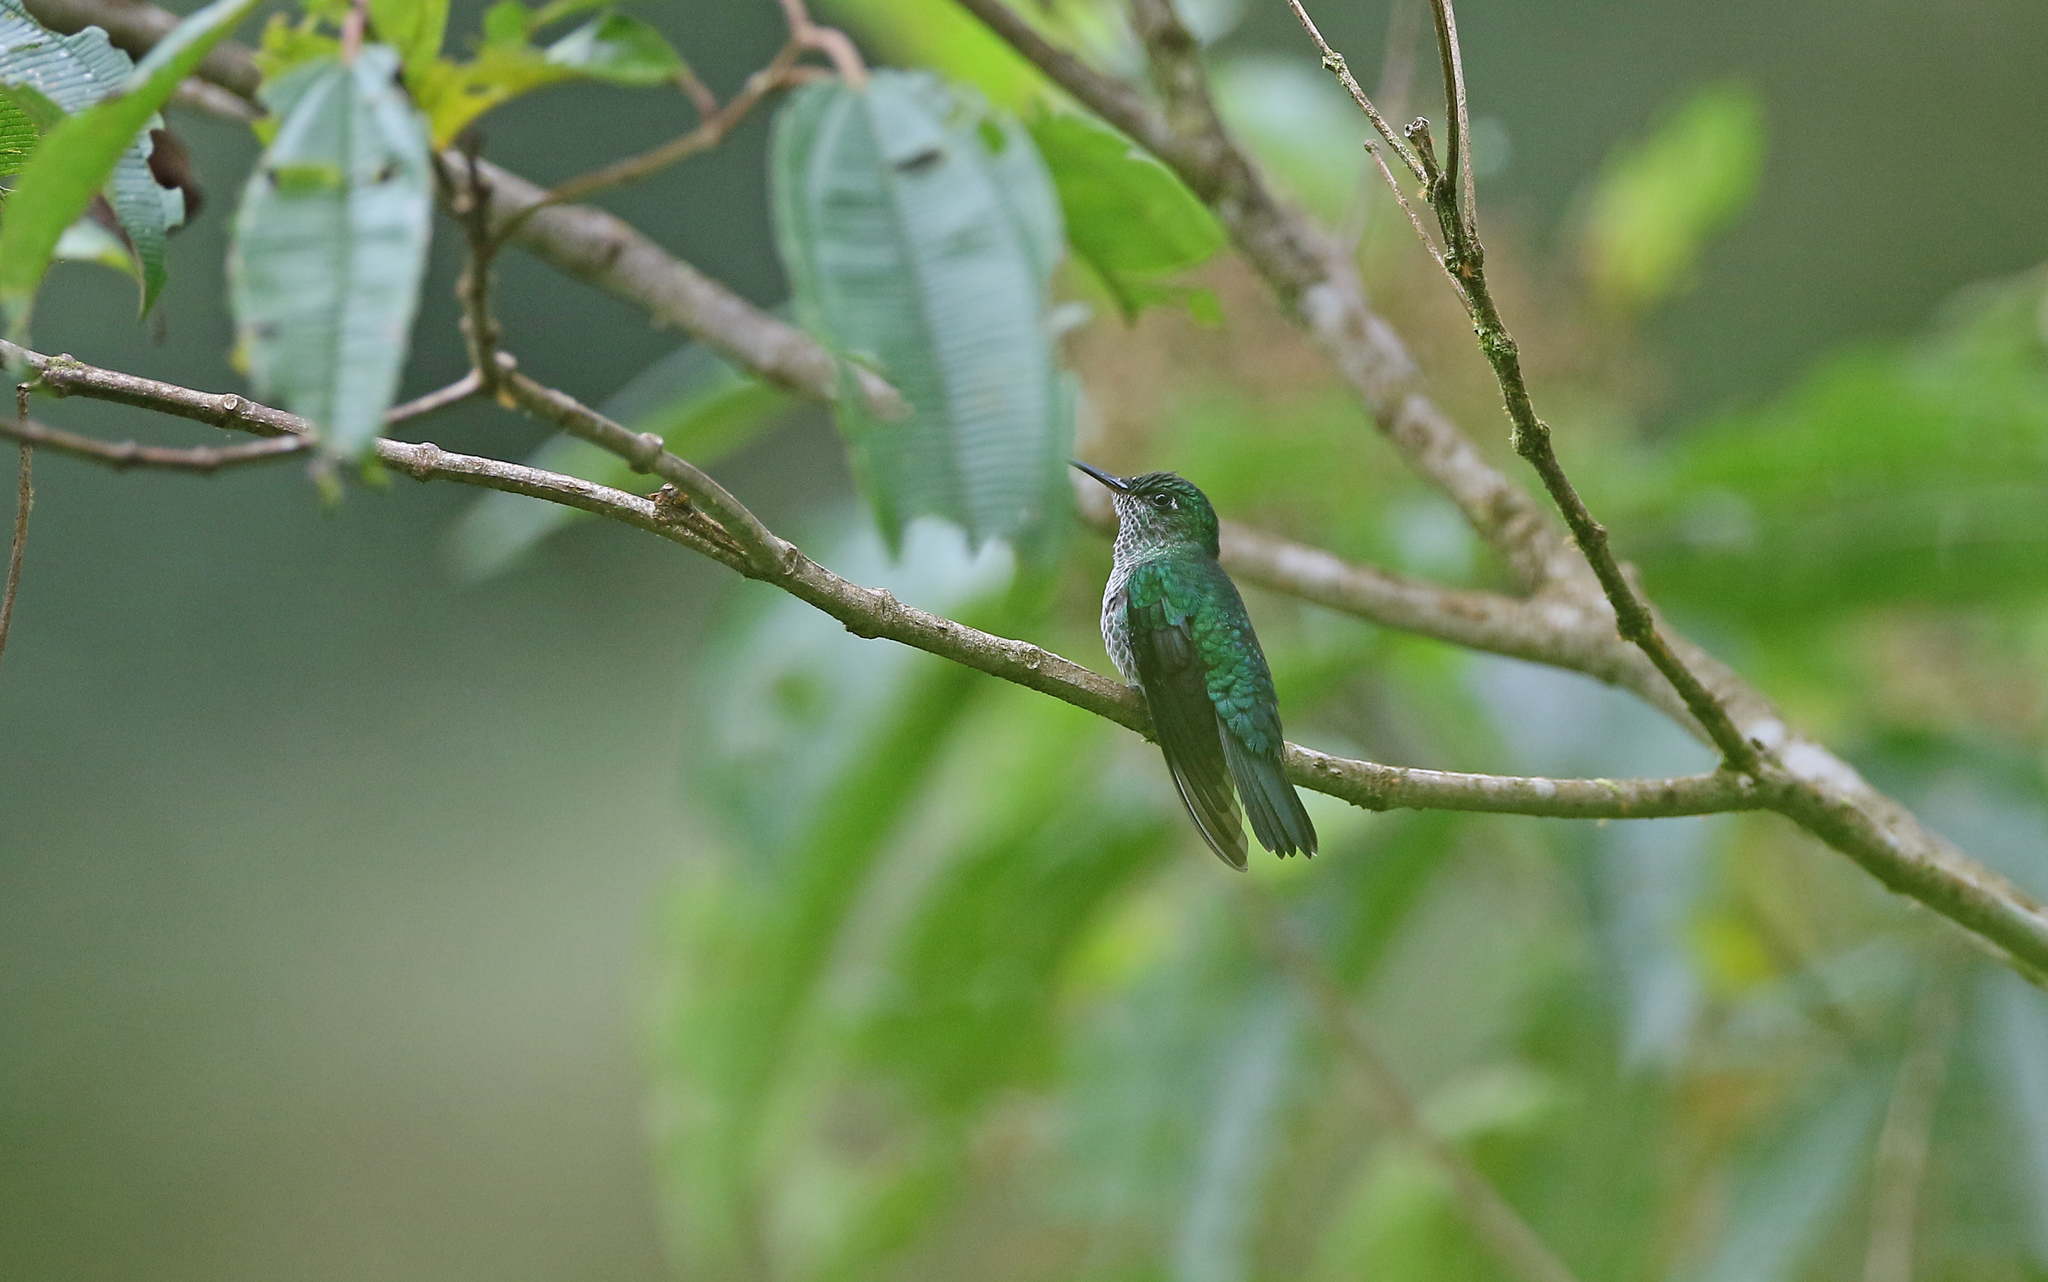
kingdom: Animalia
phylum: Chordata
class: Aves
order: Apodiformes
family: Trochilidae
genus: Taphrospilus
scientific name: Taphrospilus hypostictus
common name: Many-spotted hummingbird
